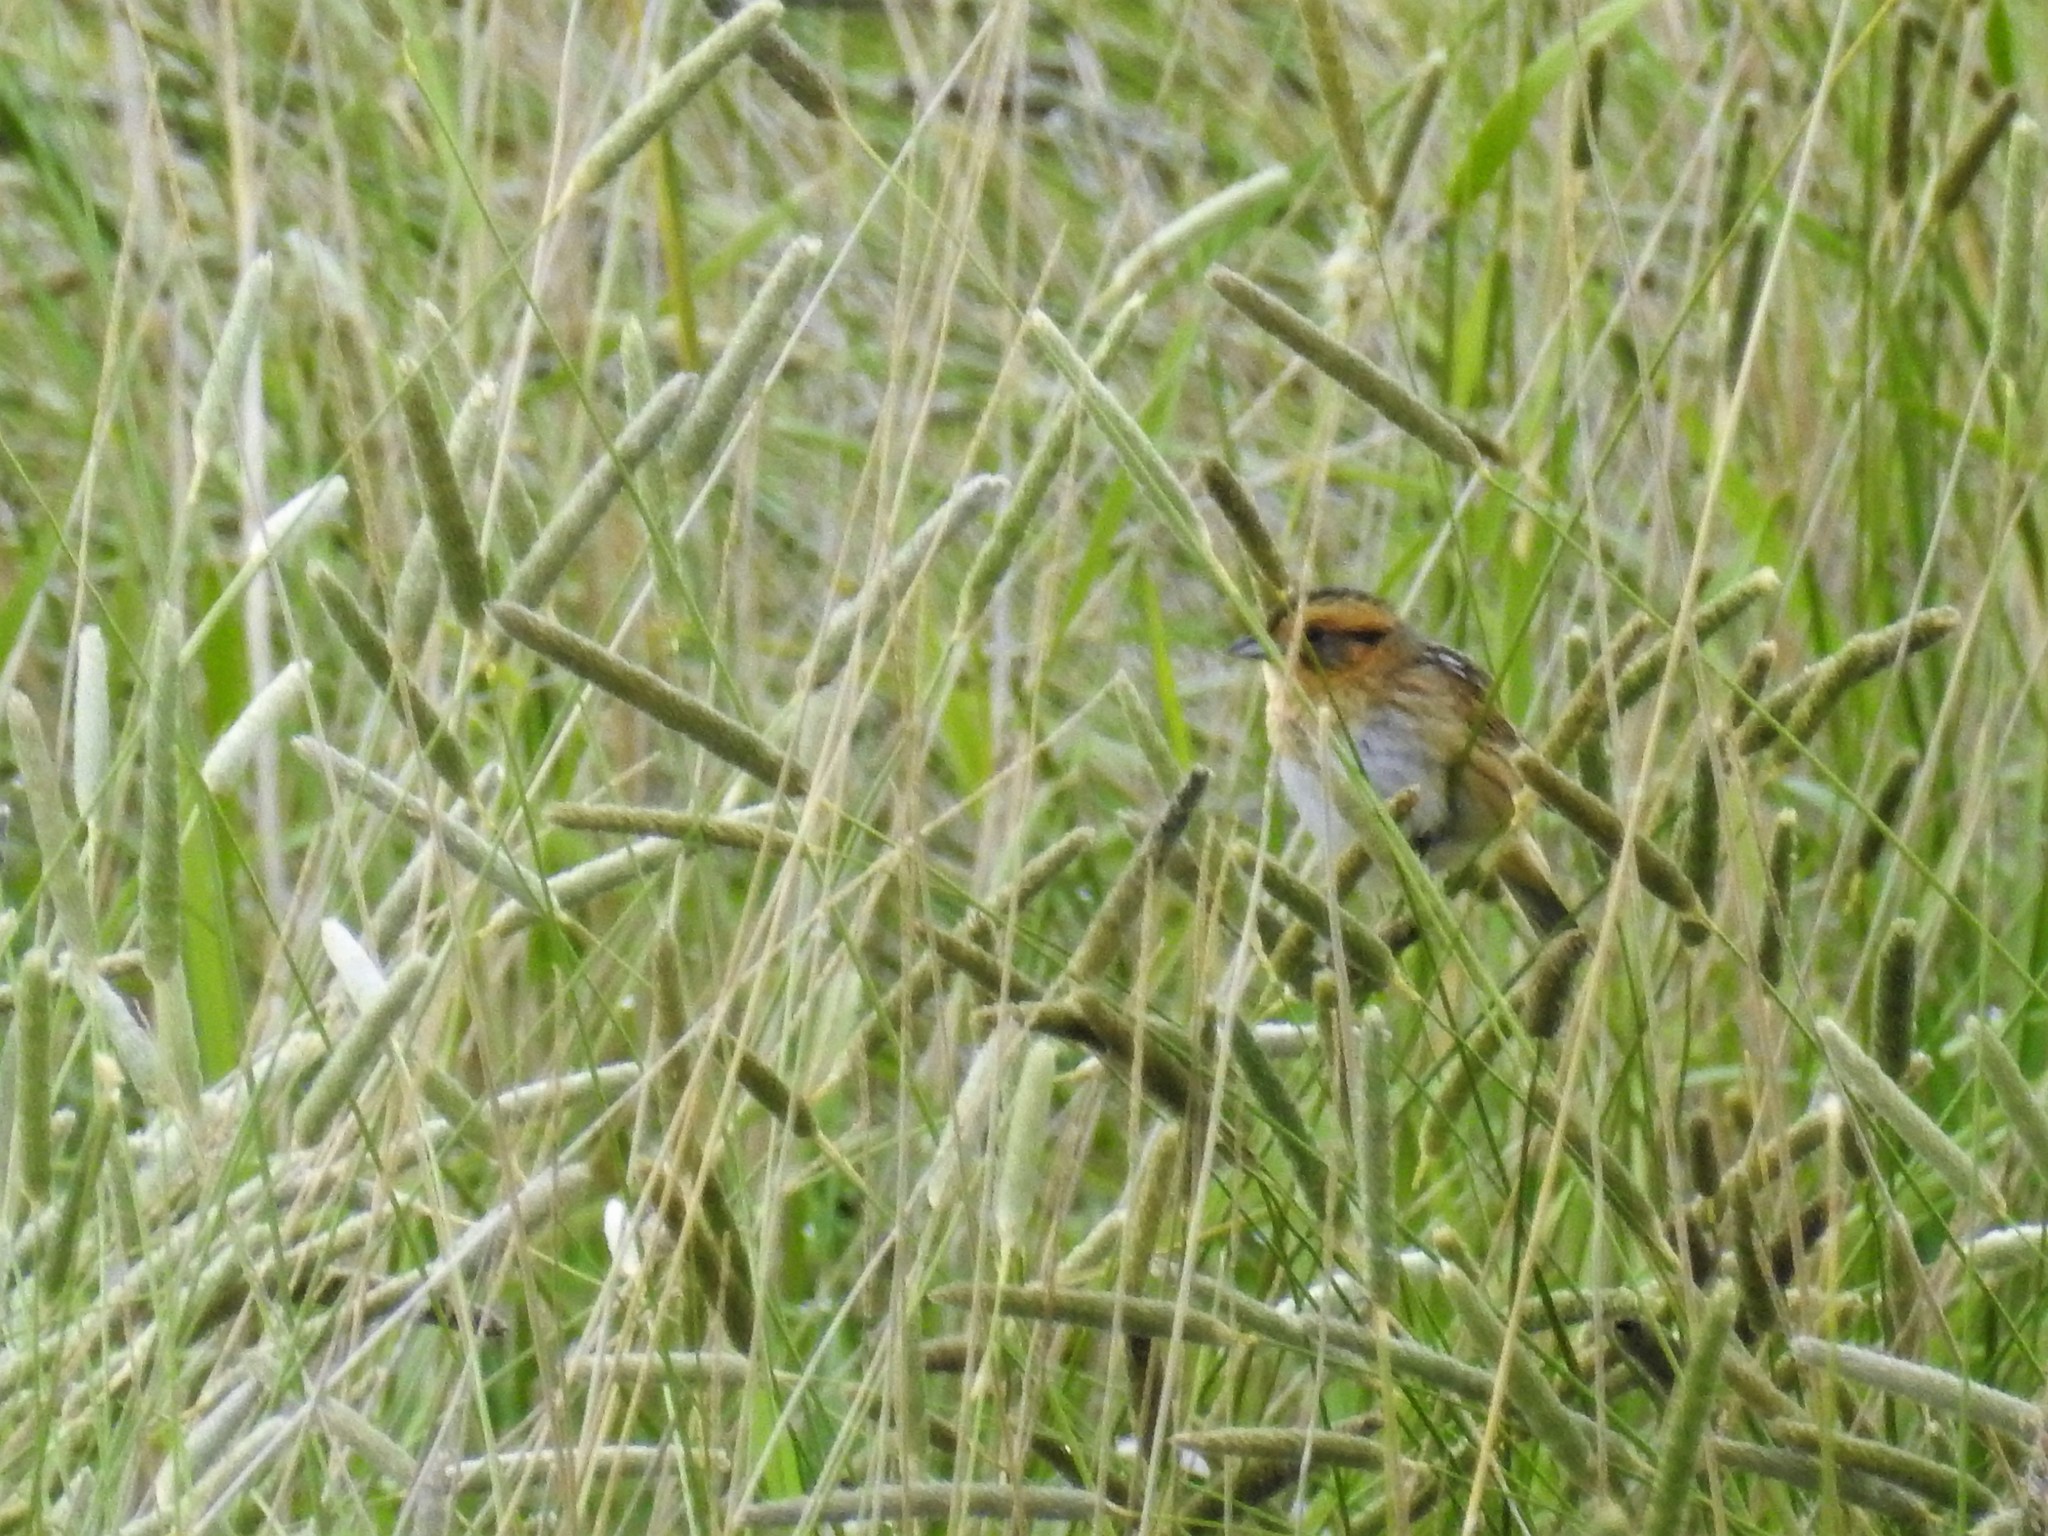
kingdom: Animalia
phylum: Chordata
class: Aves
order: Passeriformes
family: Passerellidae
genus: Ammospiza
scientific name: Ammospiza nelsoni
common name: Nelson's sparrow
